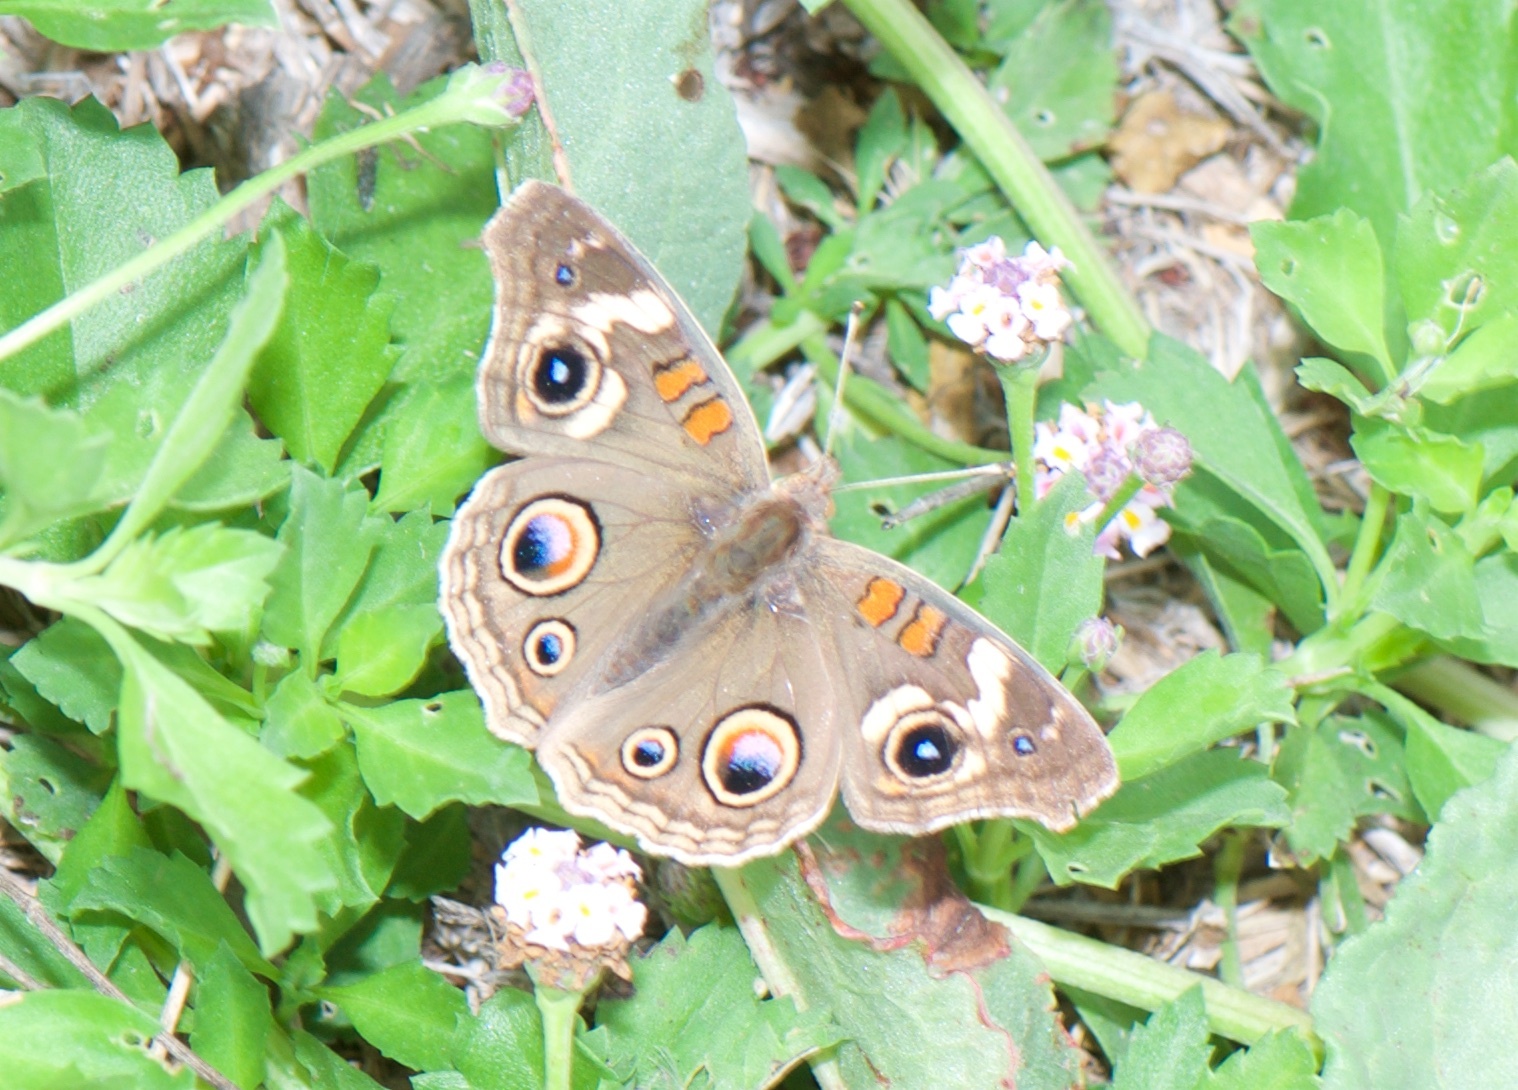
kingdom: Animalia
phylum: Arthropoda
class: Insecta
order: Lepidoptera
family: Nymphalidae
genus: Junonia
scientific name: Junonia grisea
